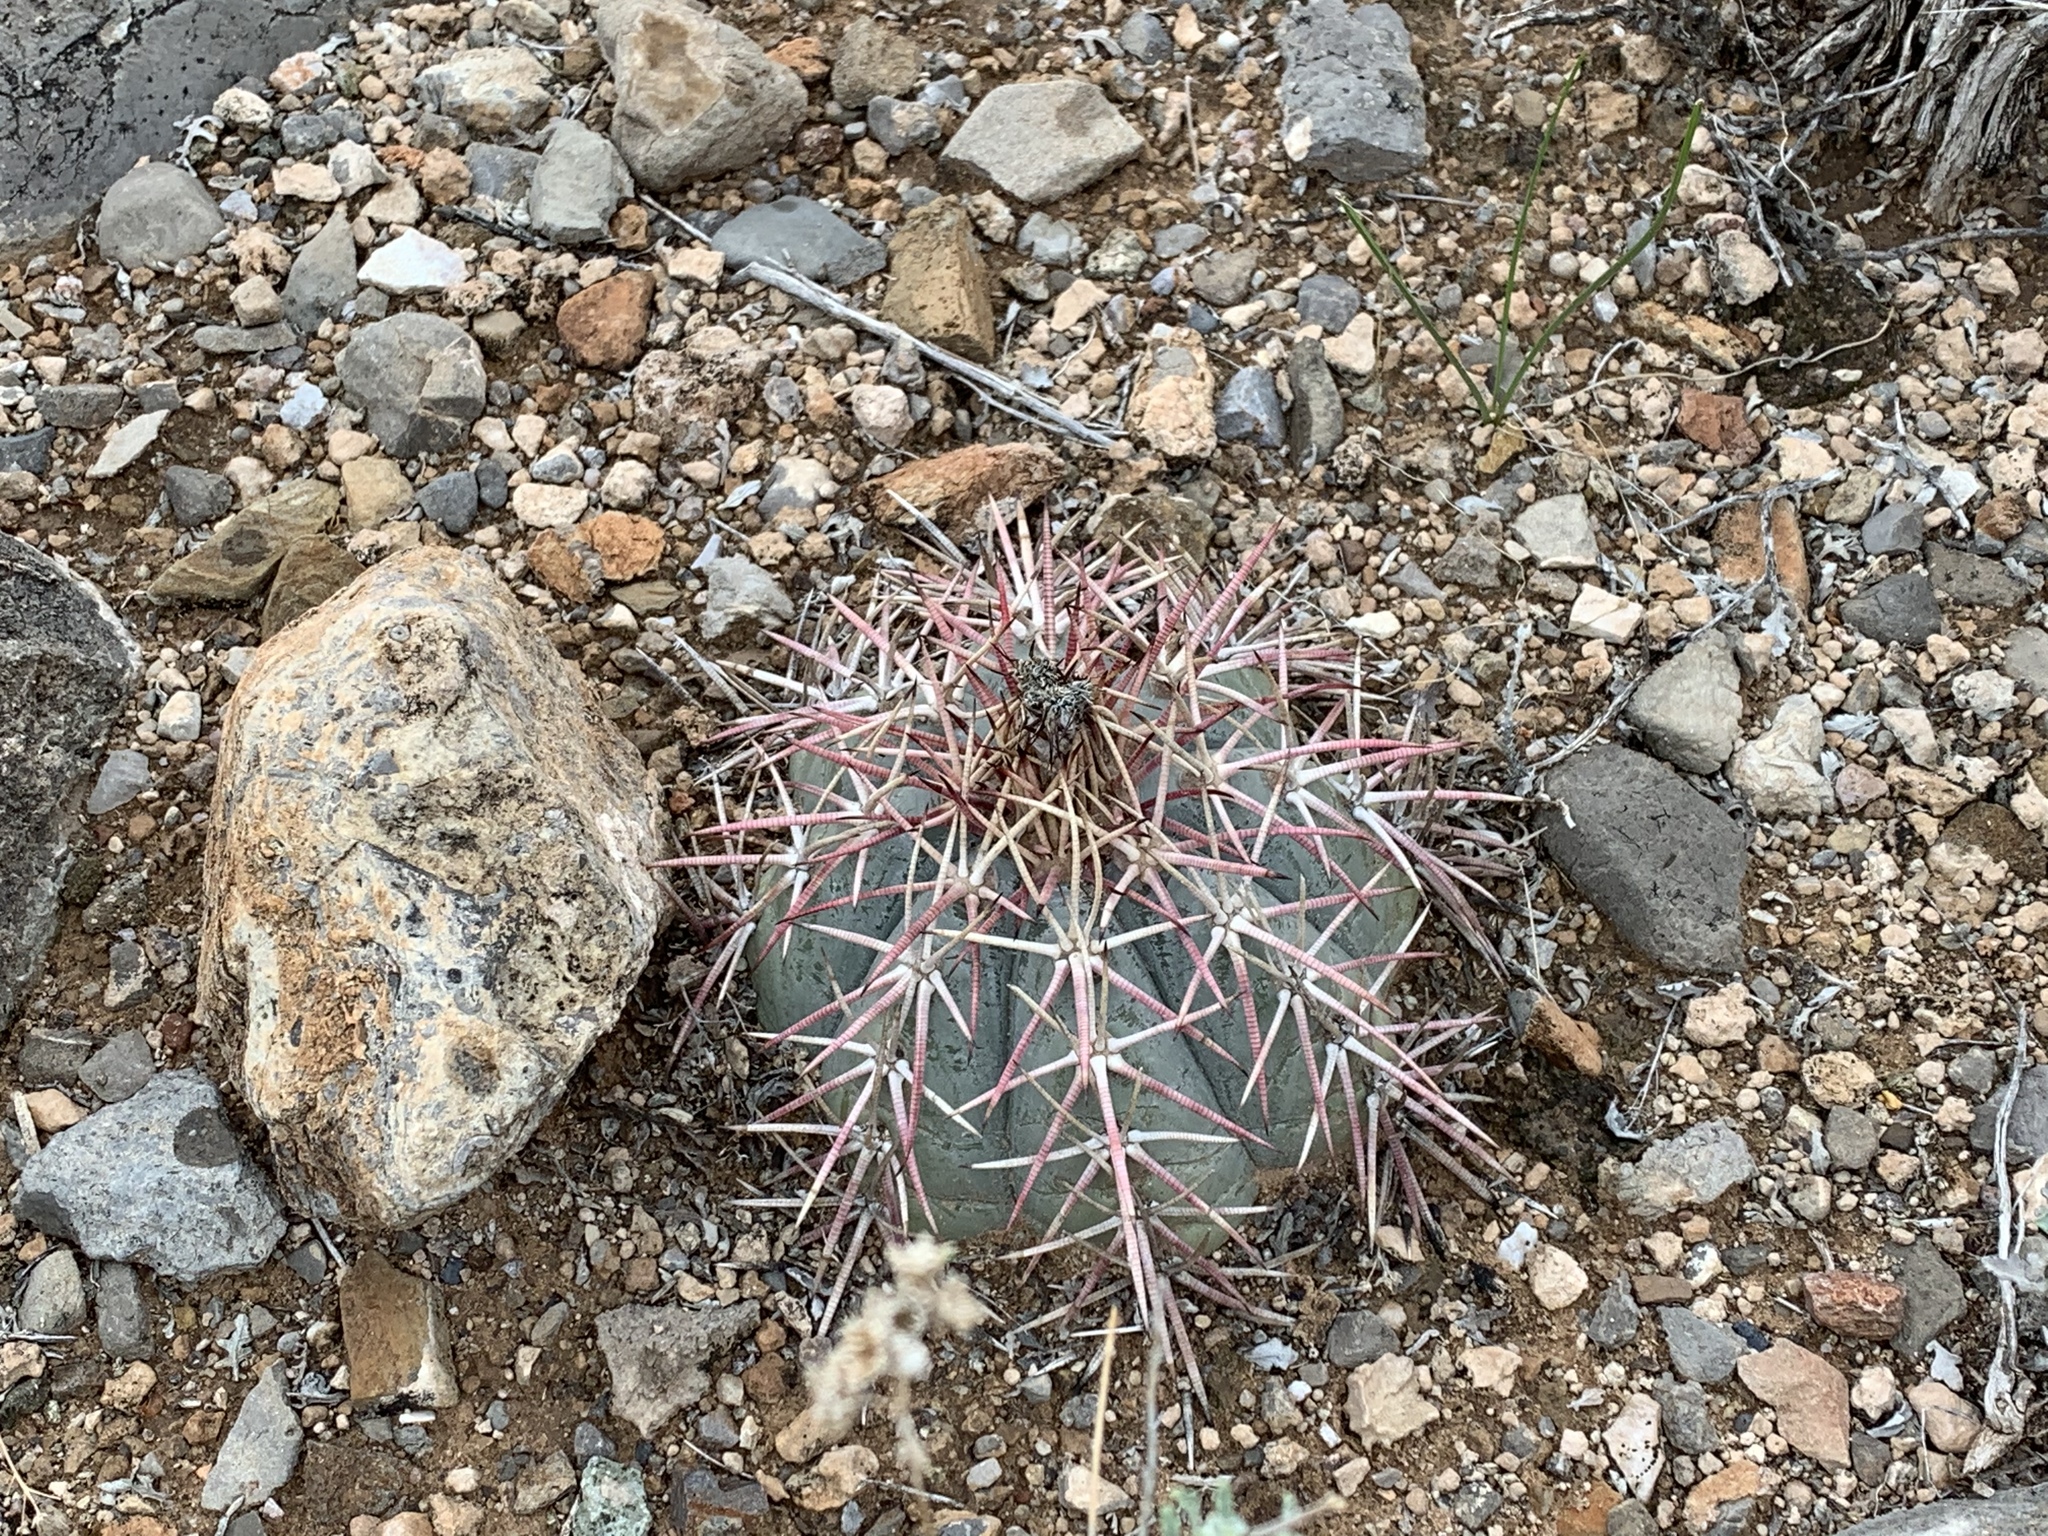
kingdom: Plantae
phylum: Tracheophyta
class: Magnoliopsida
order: Caryophyllales
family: Cactaceae
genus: Echinocactus
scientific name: Echinocactus horizonthalonius
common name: Devilshead
